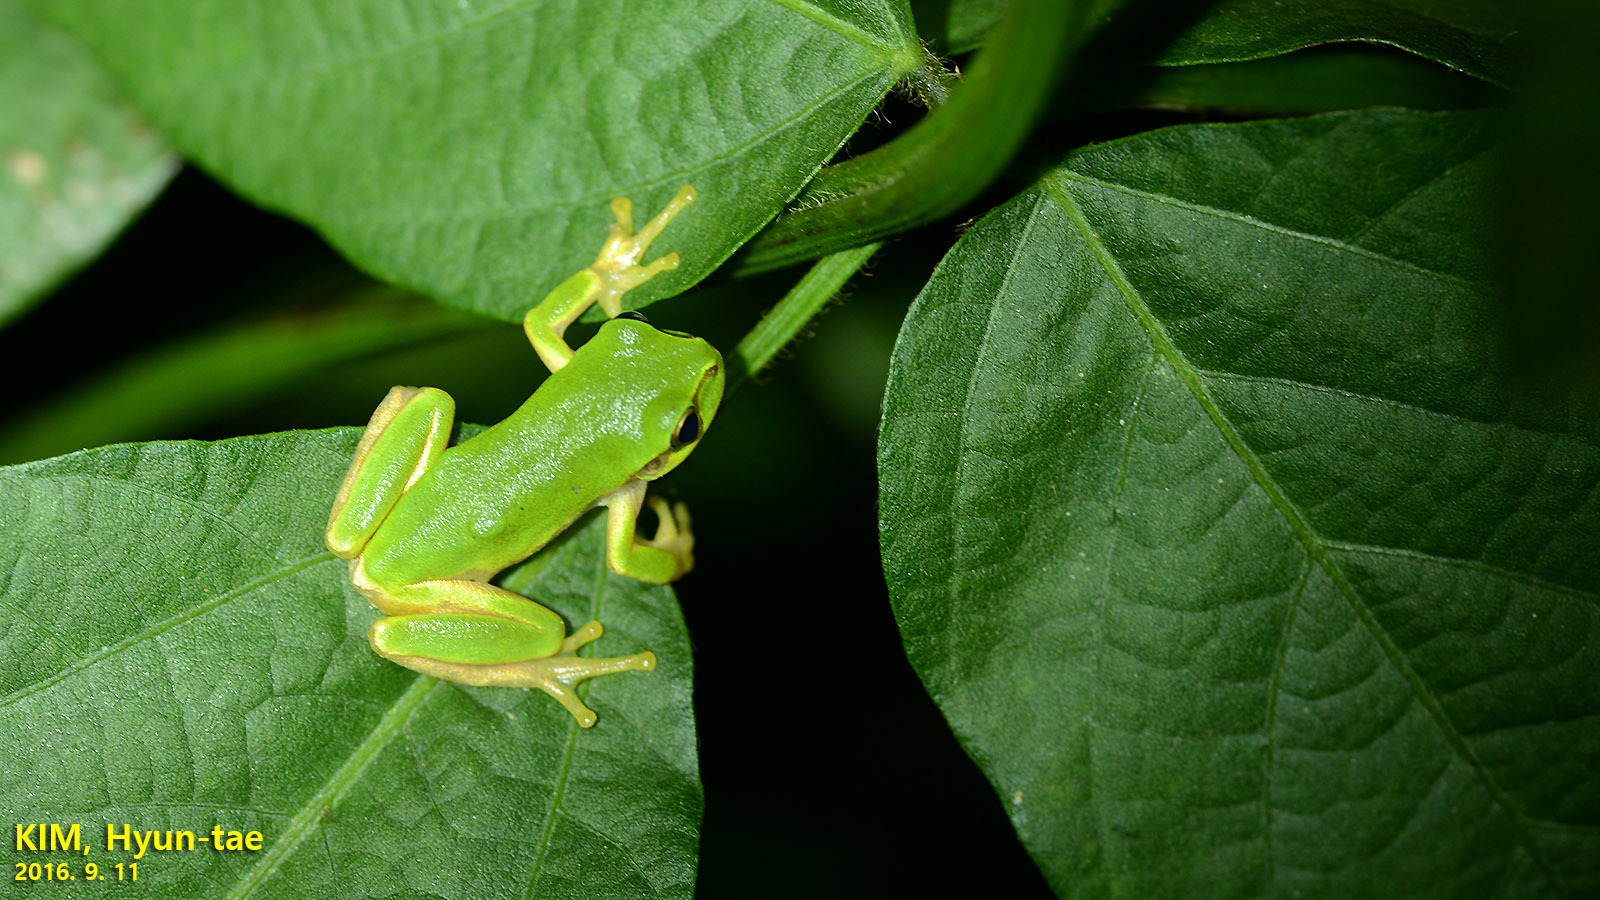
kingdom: Animalia
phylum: Chordata
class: Amphibia
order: Anura
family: Hylidae
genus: Dryophytes
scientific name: Dryophytes japonicus
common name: Japanese treefrog
